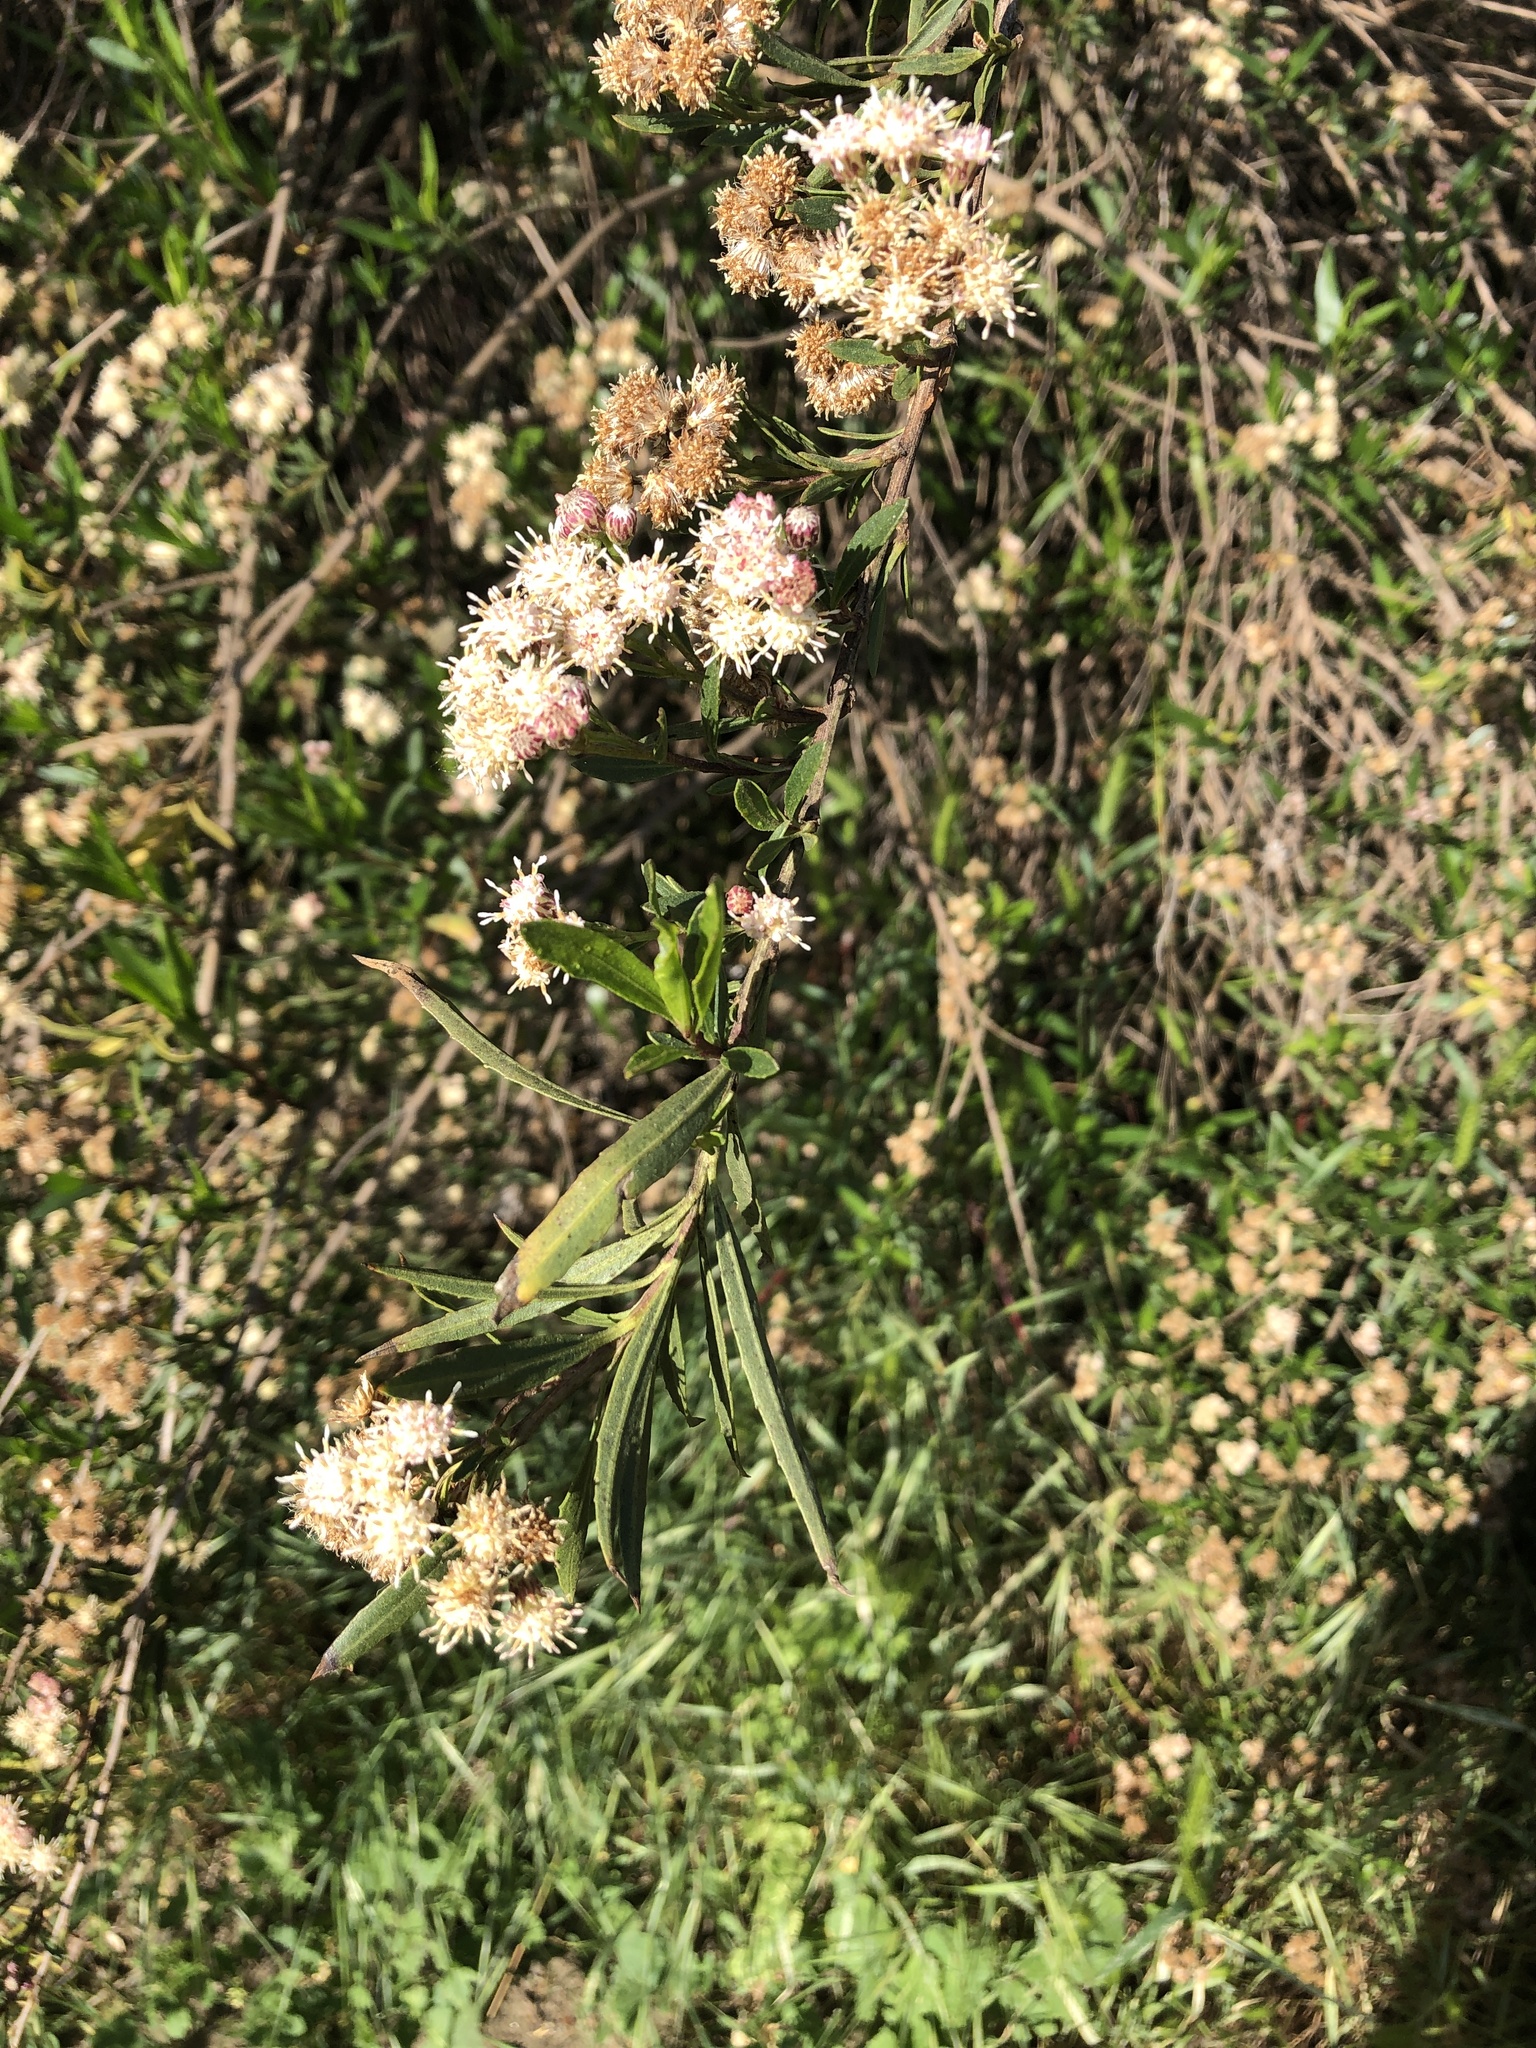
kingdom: Plantae
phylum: Tracheophyta
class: Magnoliopsida
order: Asterales
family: Asteraceae
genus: Baccharis
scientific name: Baccharis salicifolia
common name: Sticky baccharis
